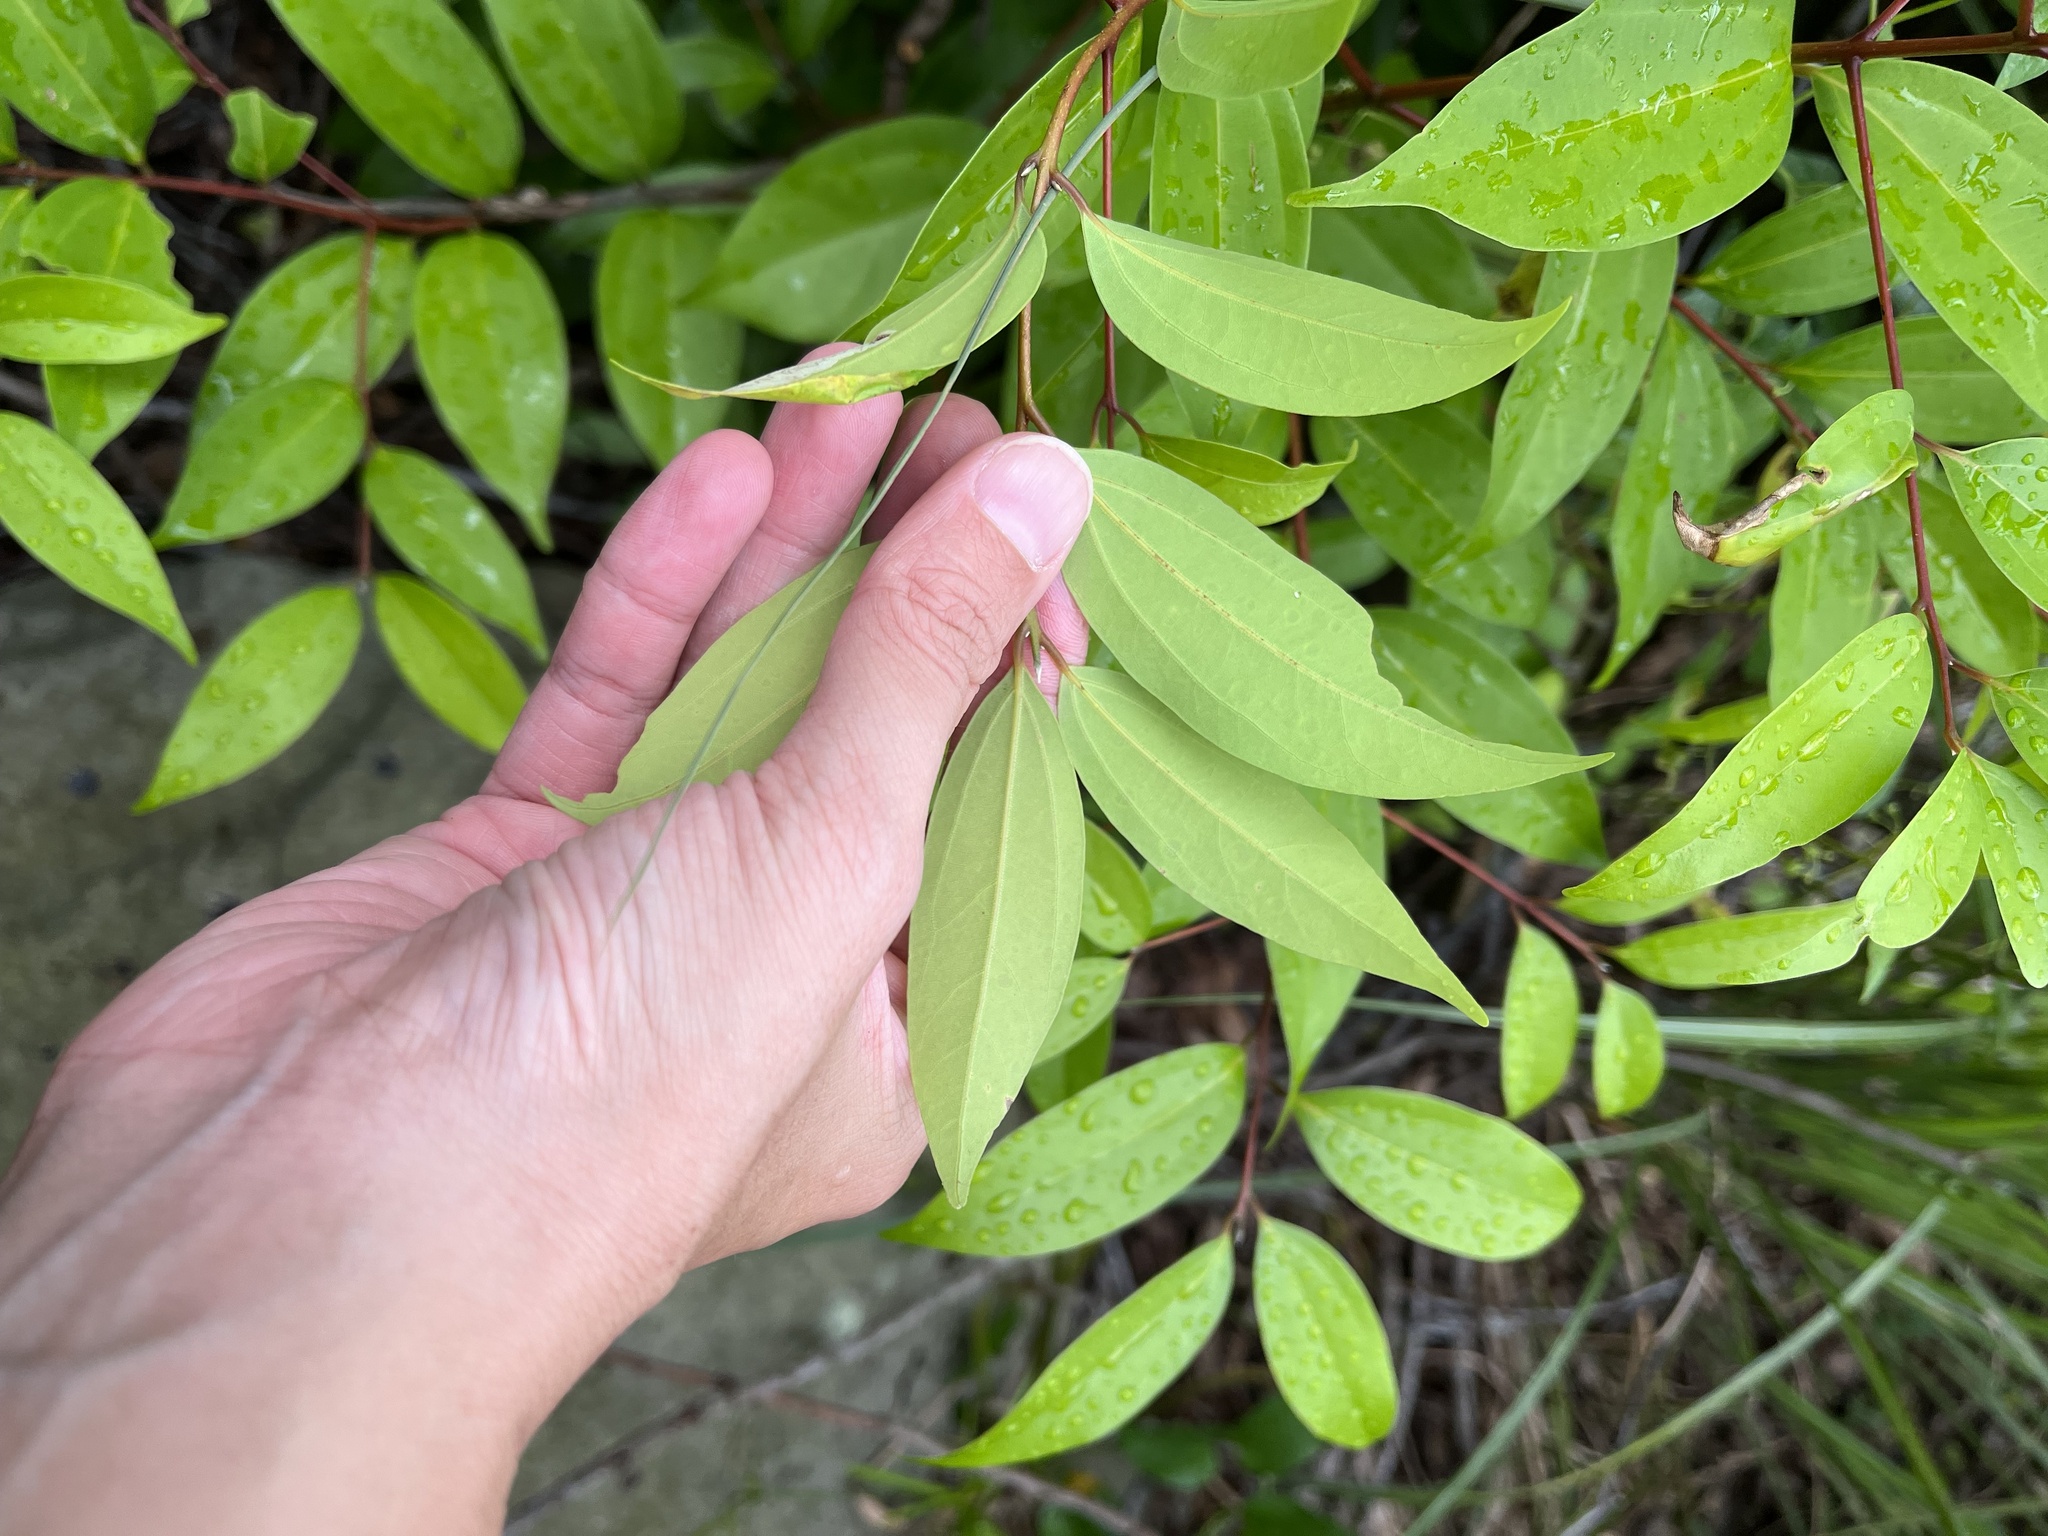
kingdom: Plantae
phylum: Tracheophyta
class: Magnoliopsida
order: Laurales
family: Lauraceae
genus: Cinnamomum
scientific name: Cinnamomum burmanni
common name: Padang cassia
